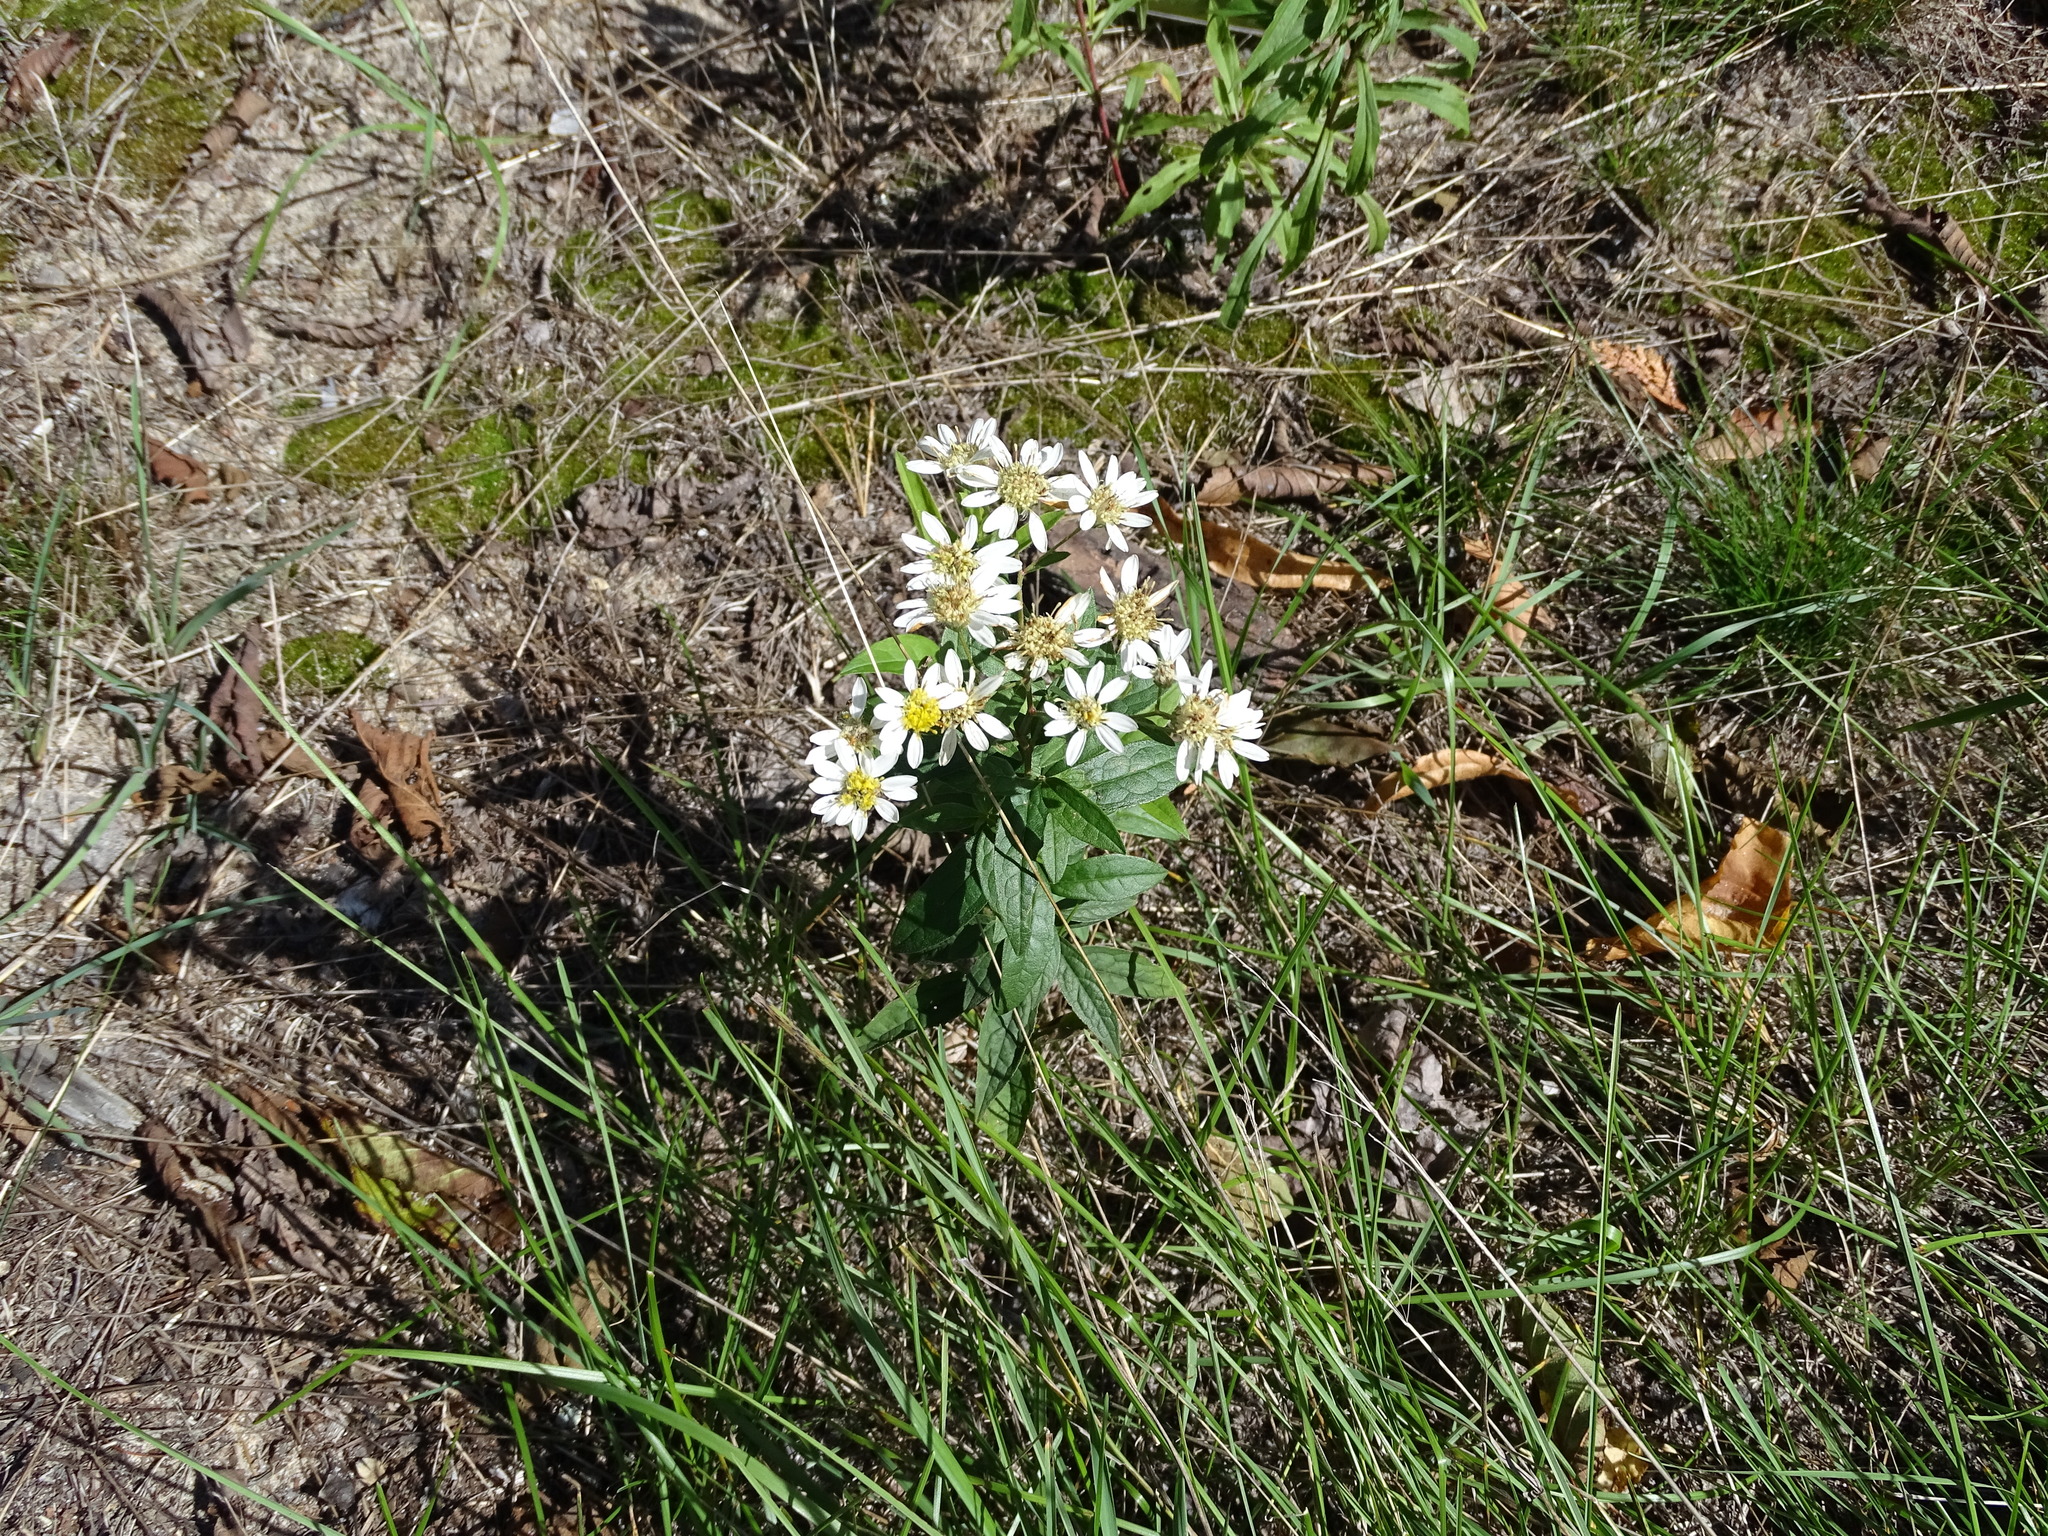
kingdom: Plantae
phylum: Tracheophyta
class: Magnoliopsida
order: Asterales
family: Asteraceae
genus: Doellingeria
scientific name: Doellingeria umbellata
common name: Flat-top white aster
